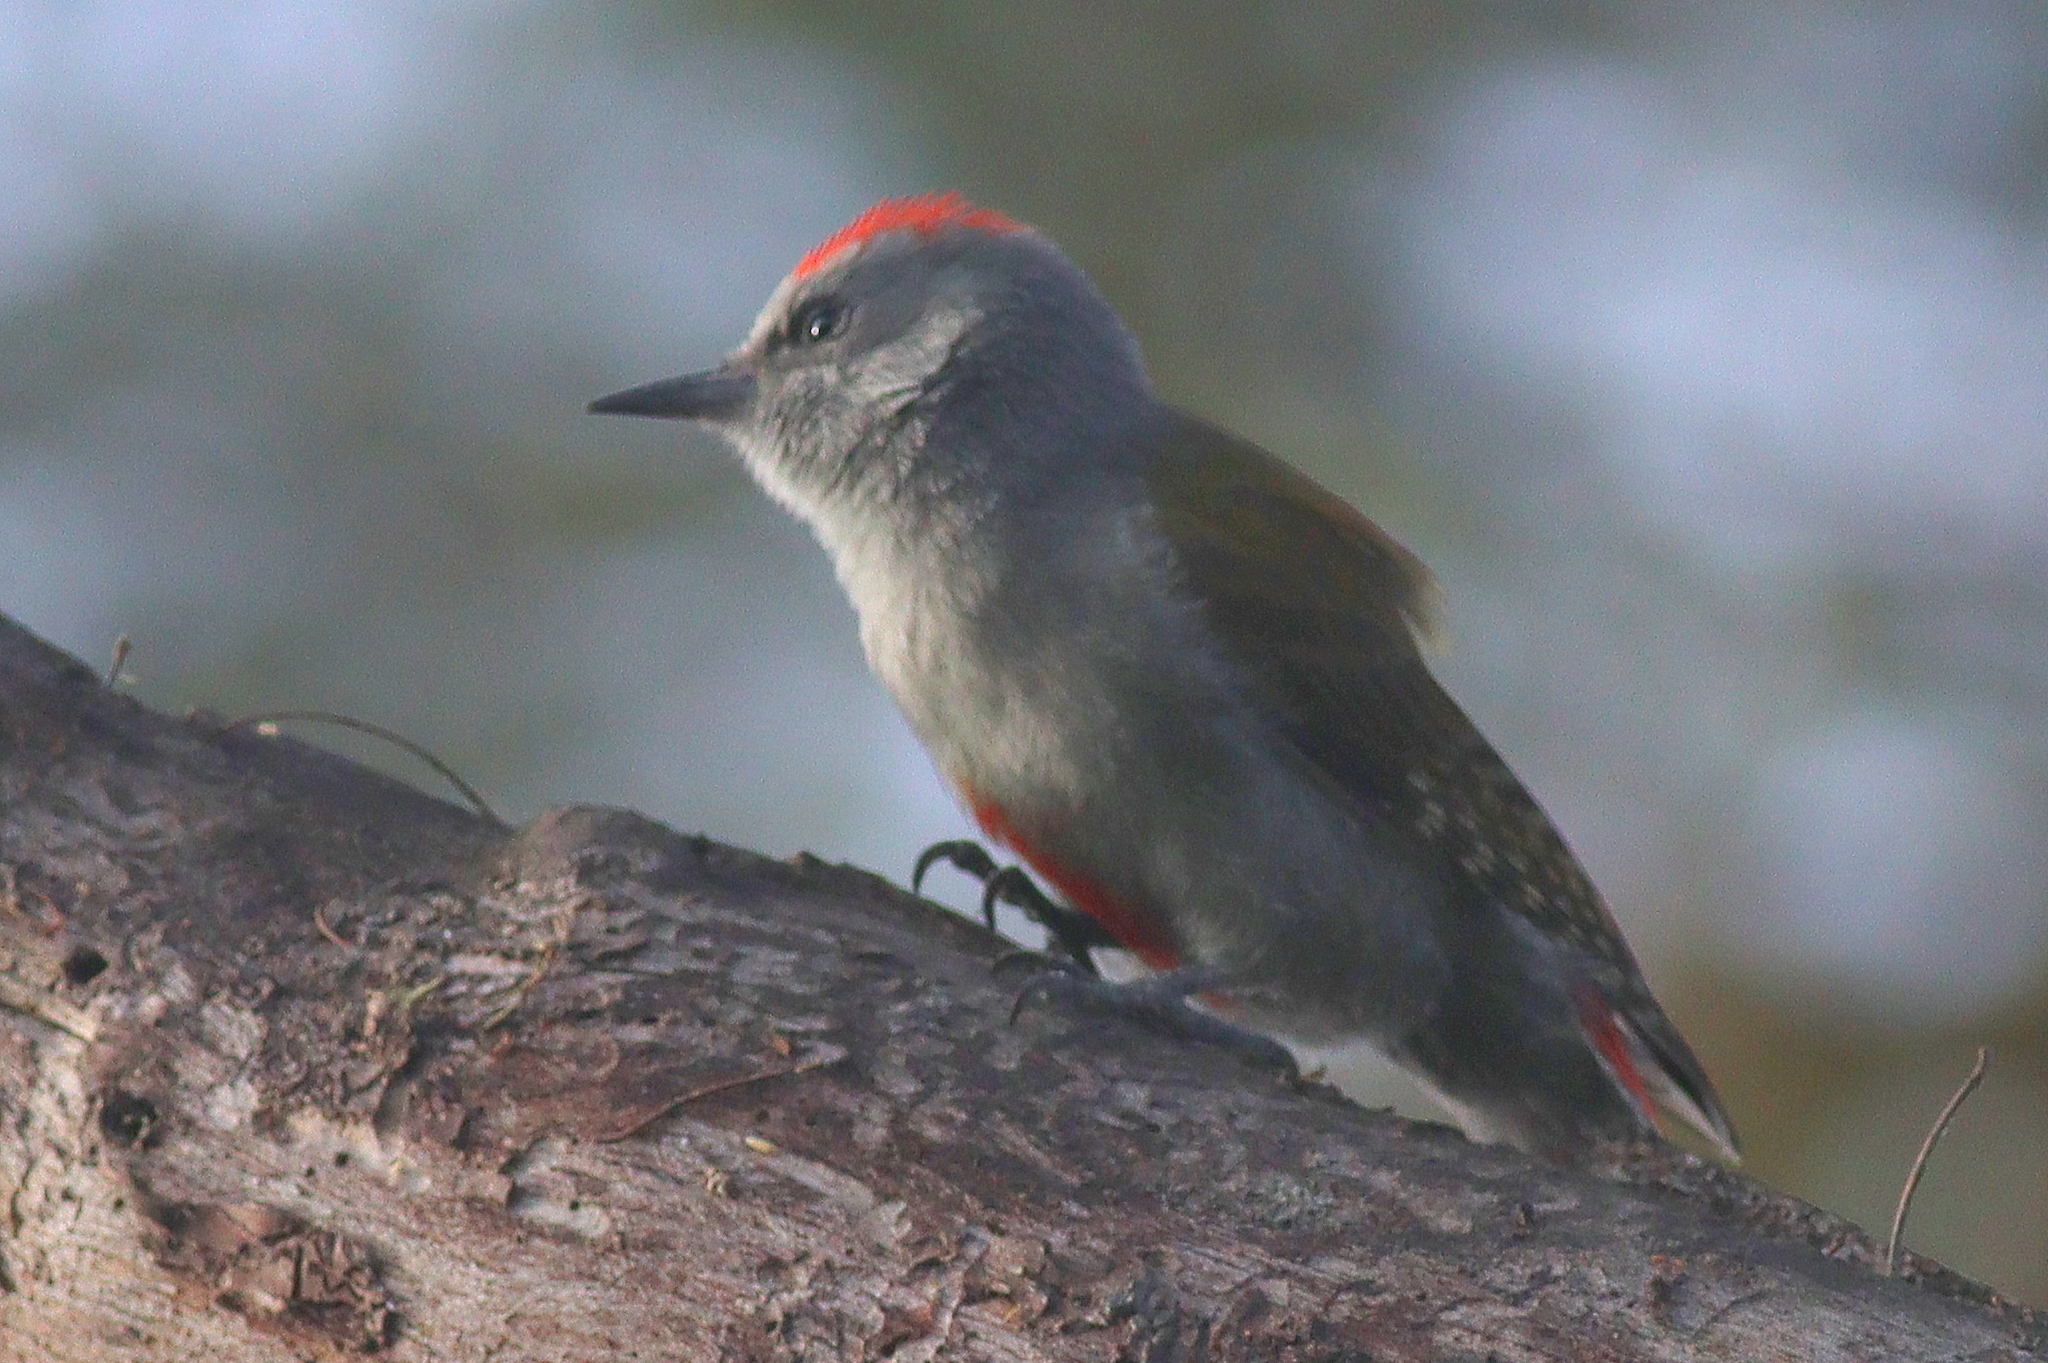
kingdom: Animalia
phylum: Chordata
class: Aves
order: Piciformes
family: Picidae
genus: Dendropicos
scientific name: Dendropicos spodocephalus
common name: Eastern grey woodpecker
